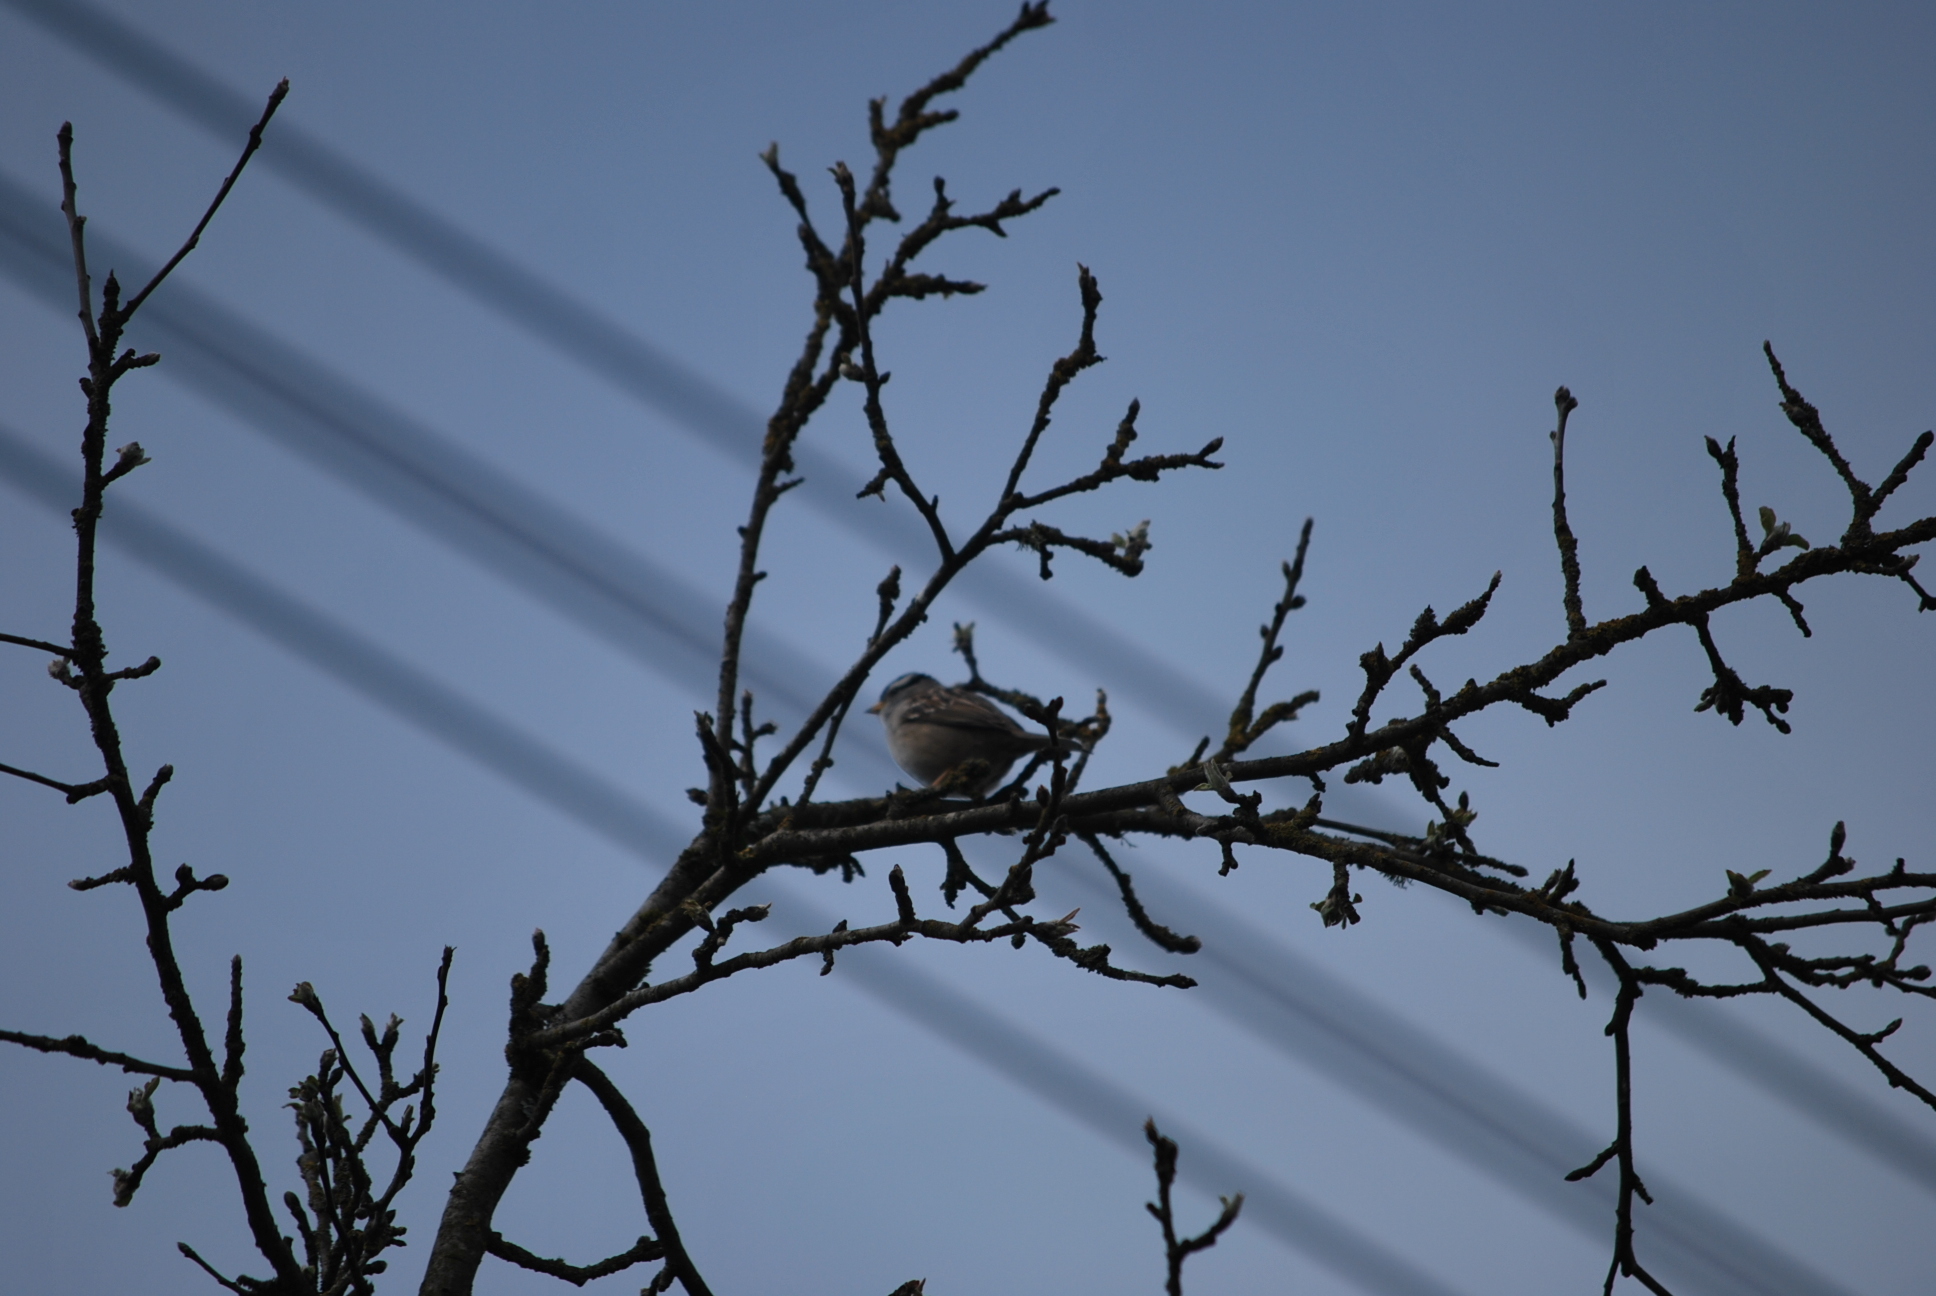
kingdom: Animalia
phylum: Chordata
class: Aves
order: Passeriformes
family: Passerellidae
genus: Zonotrichia
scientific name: Zonotrichia leucophrys
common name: White-crowned sparrow
